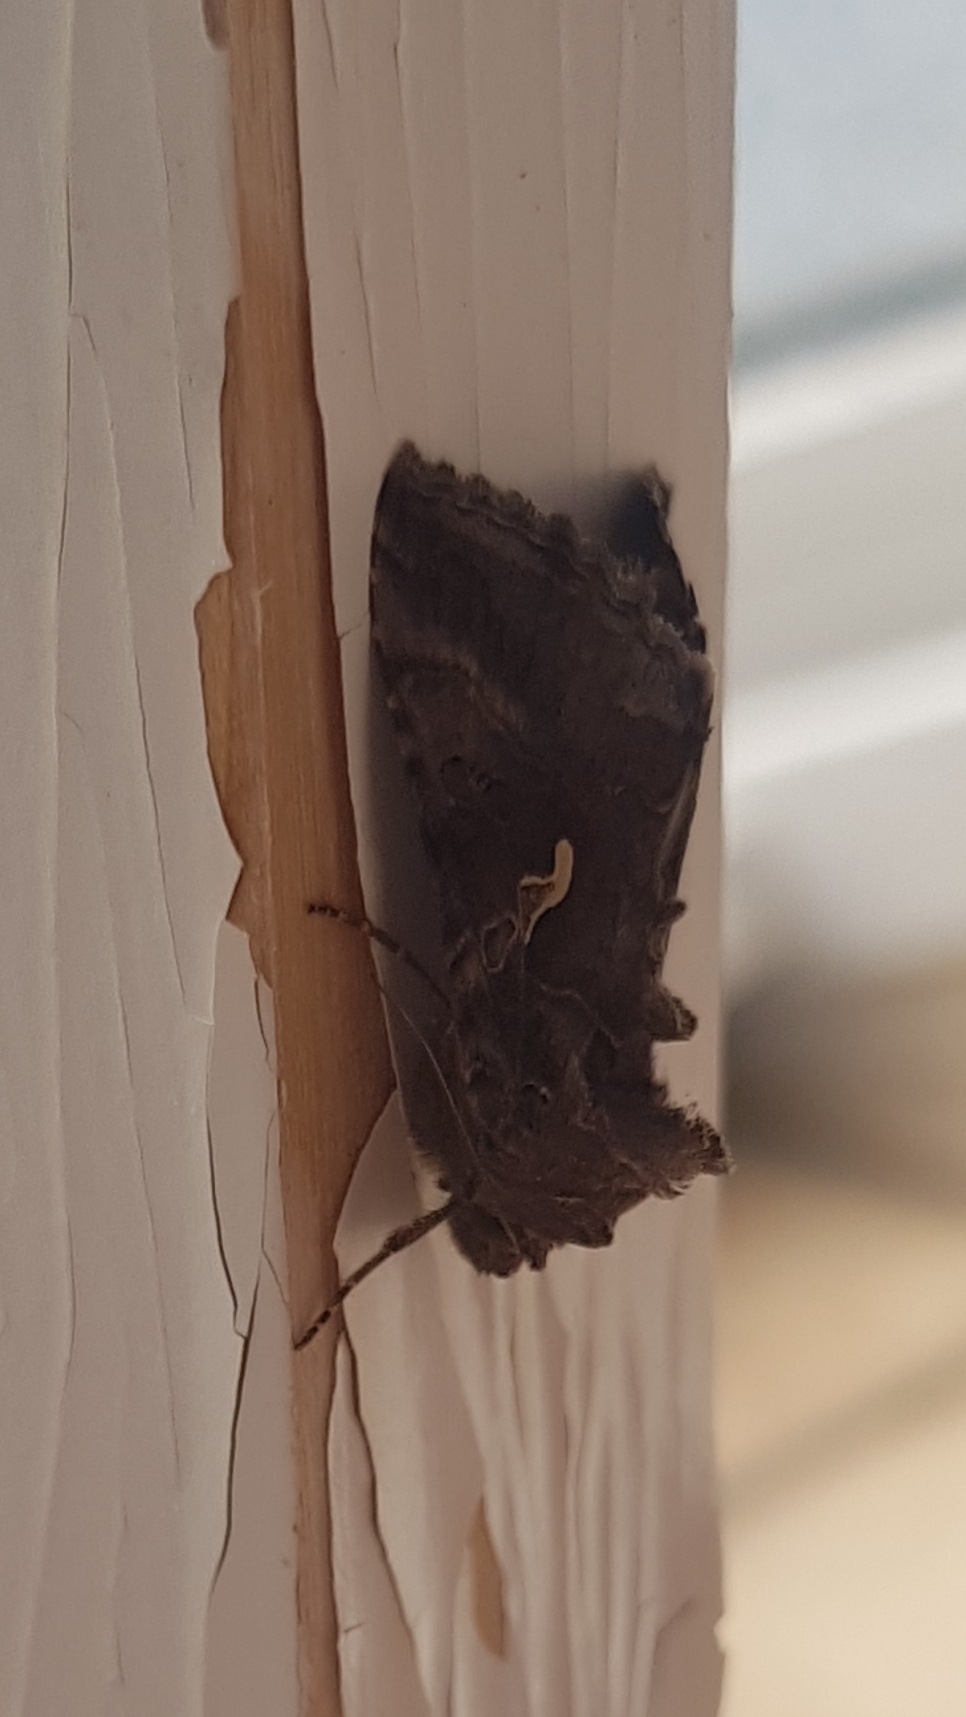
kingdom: Animalia
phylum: Arthropoda
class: Insecta
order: Lepidoptera
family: Noctuidae
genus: Autographa
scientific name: Autographa gamma
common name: Silver y
